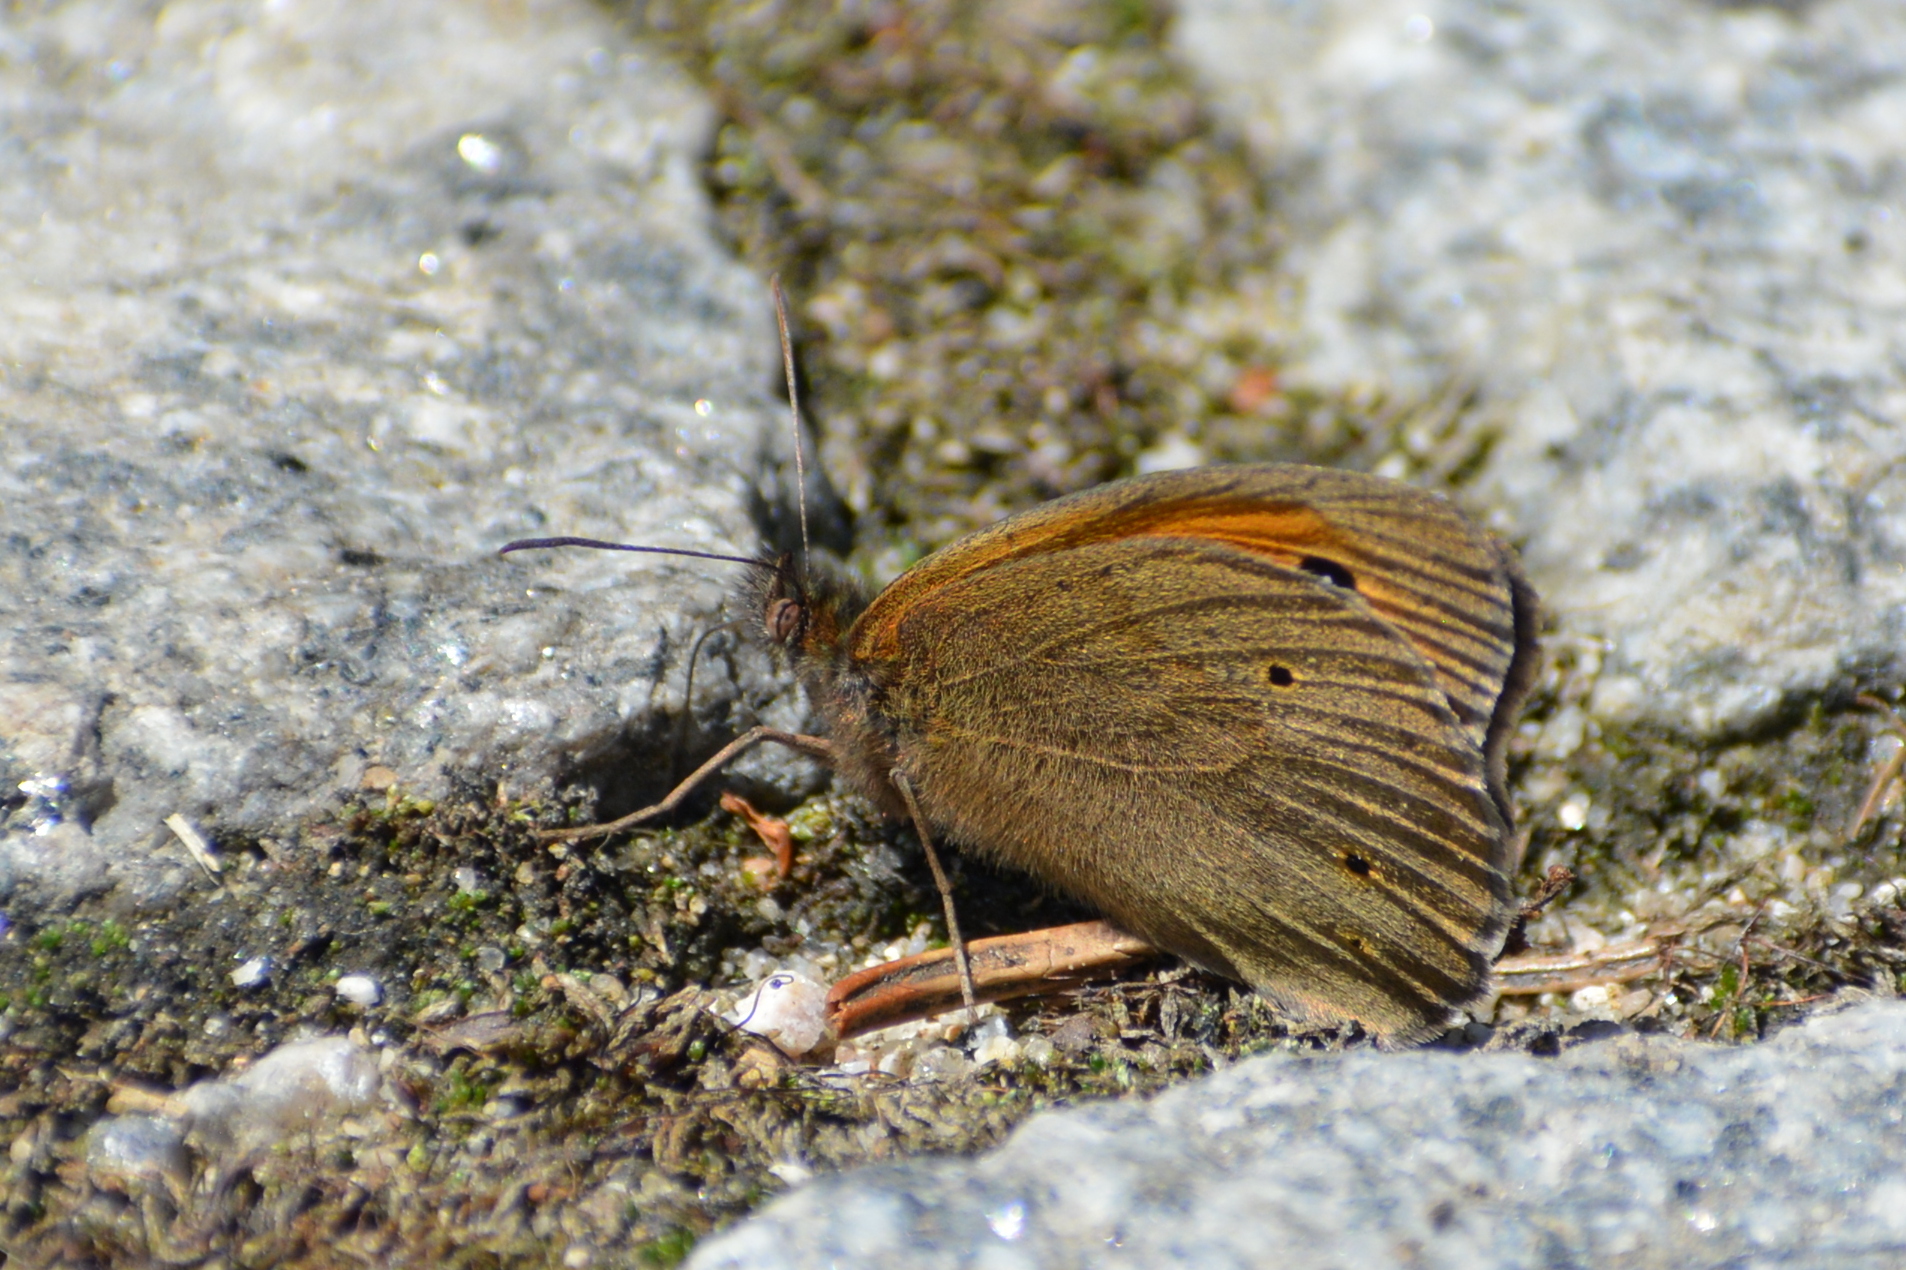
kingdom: Animalia
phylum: Arthropoda
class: Insecta
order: Lepidoptera
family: Nymphalidae
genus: Maniola
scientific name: Maniola jurtina
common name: Meadow brown
